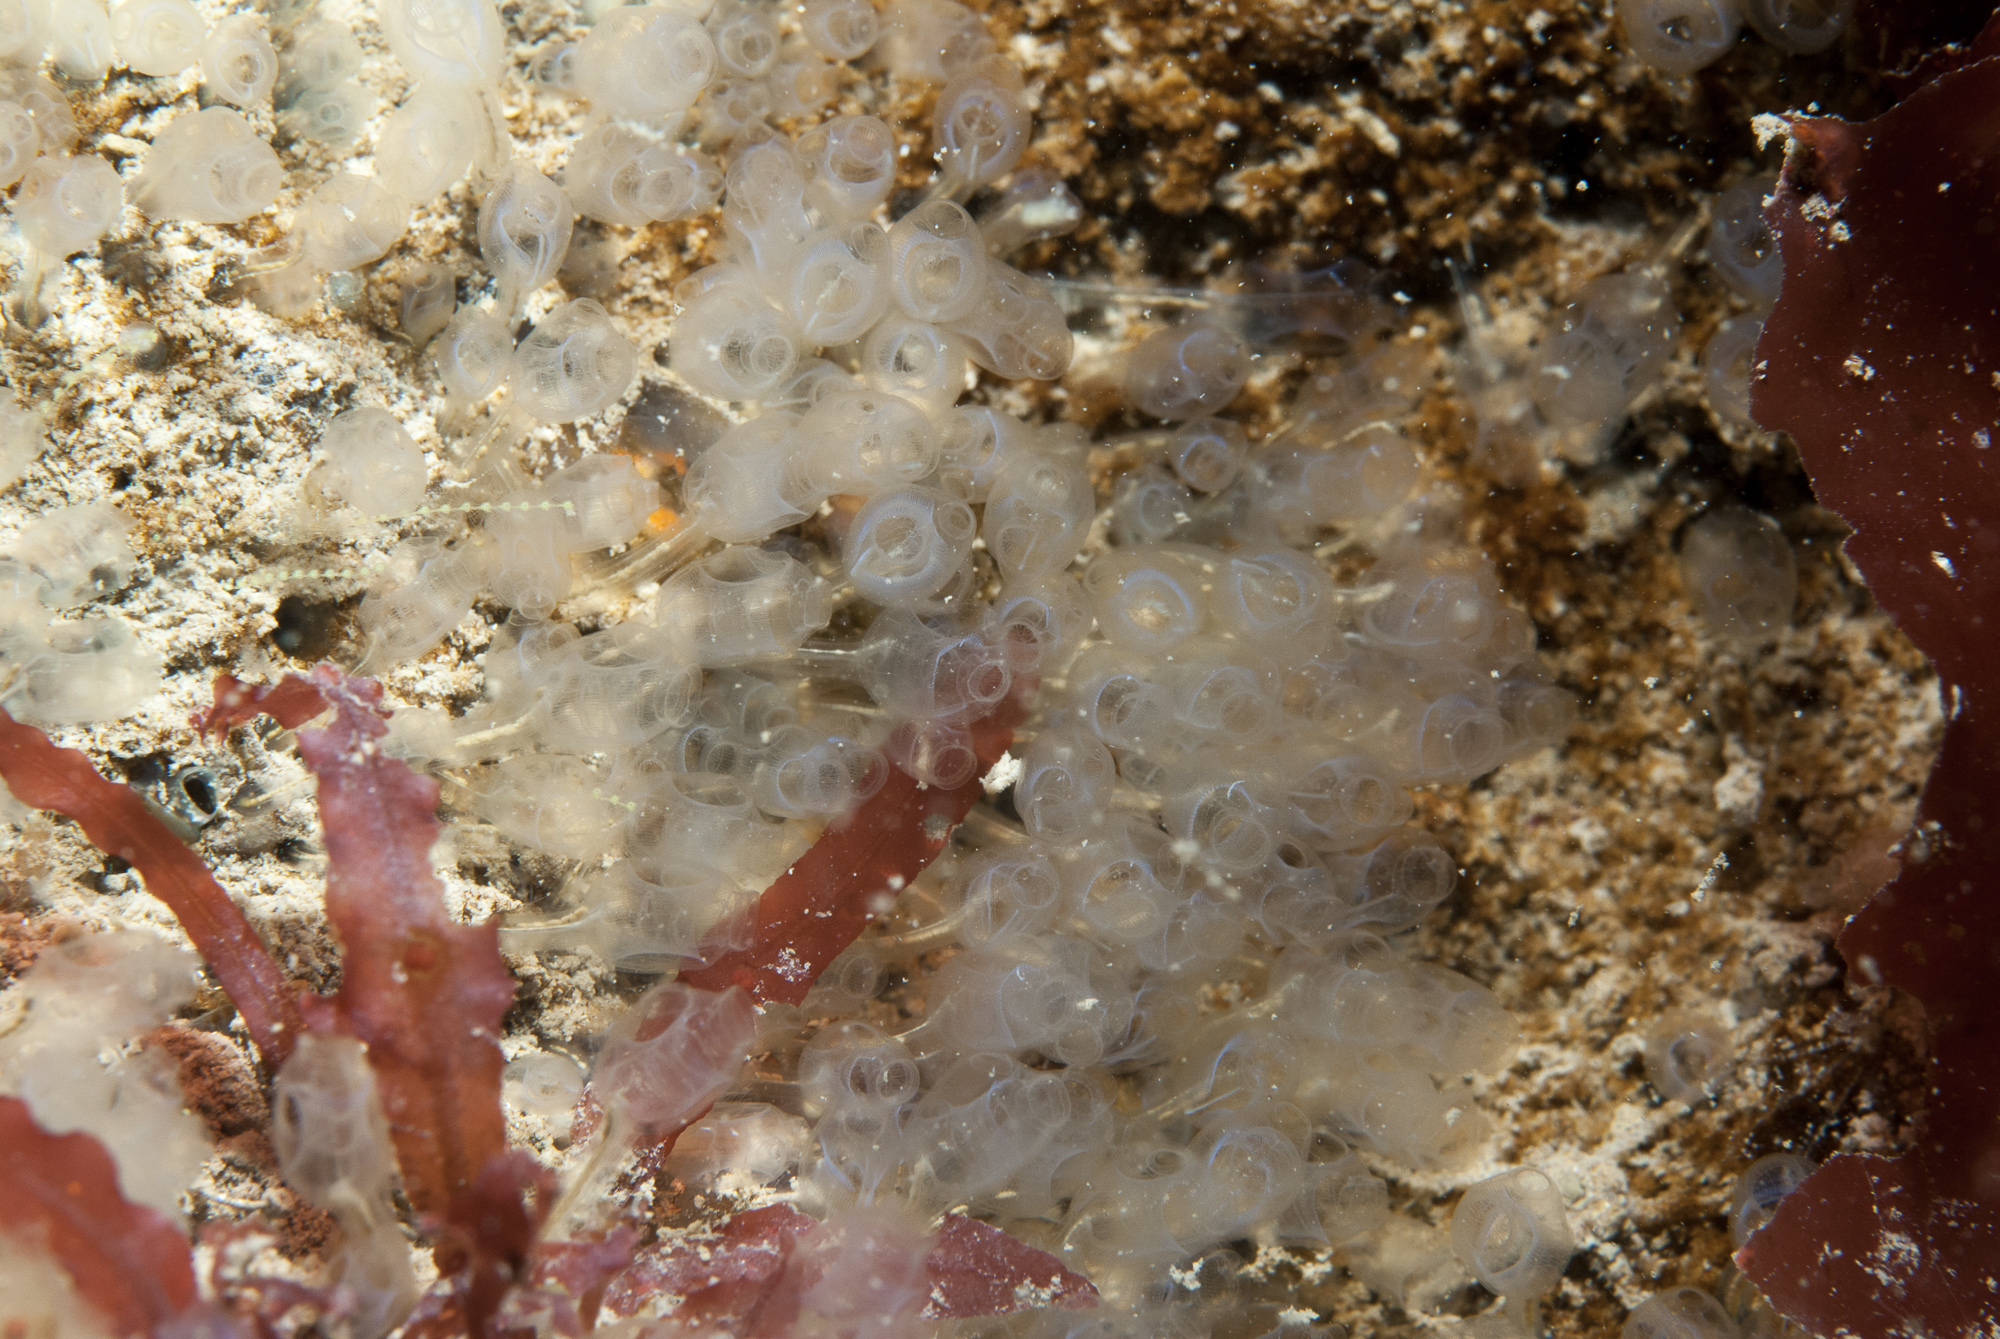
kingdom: Animalia
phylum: Chordata
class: Ascidiacea
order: Aplousobranchia
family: Clavelinidae
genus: Pycnoclavella
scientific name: Pycnoclavella producta
